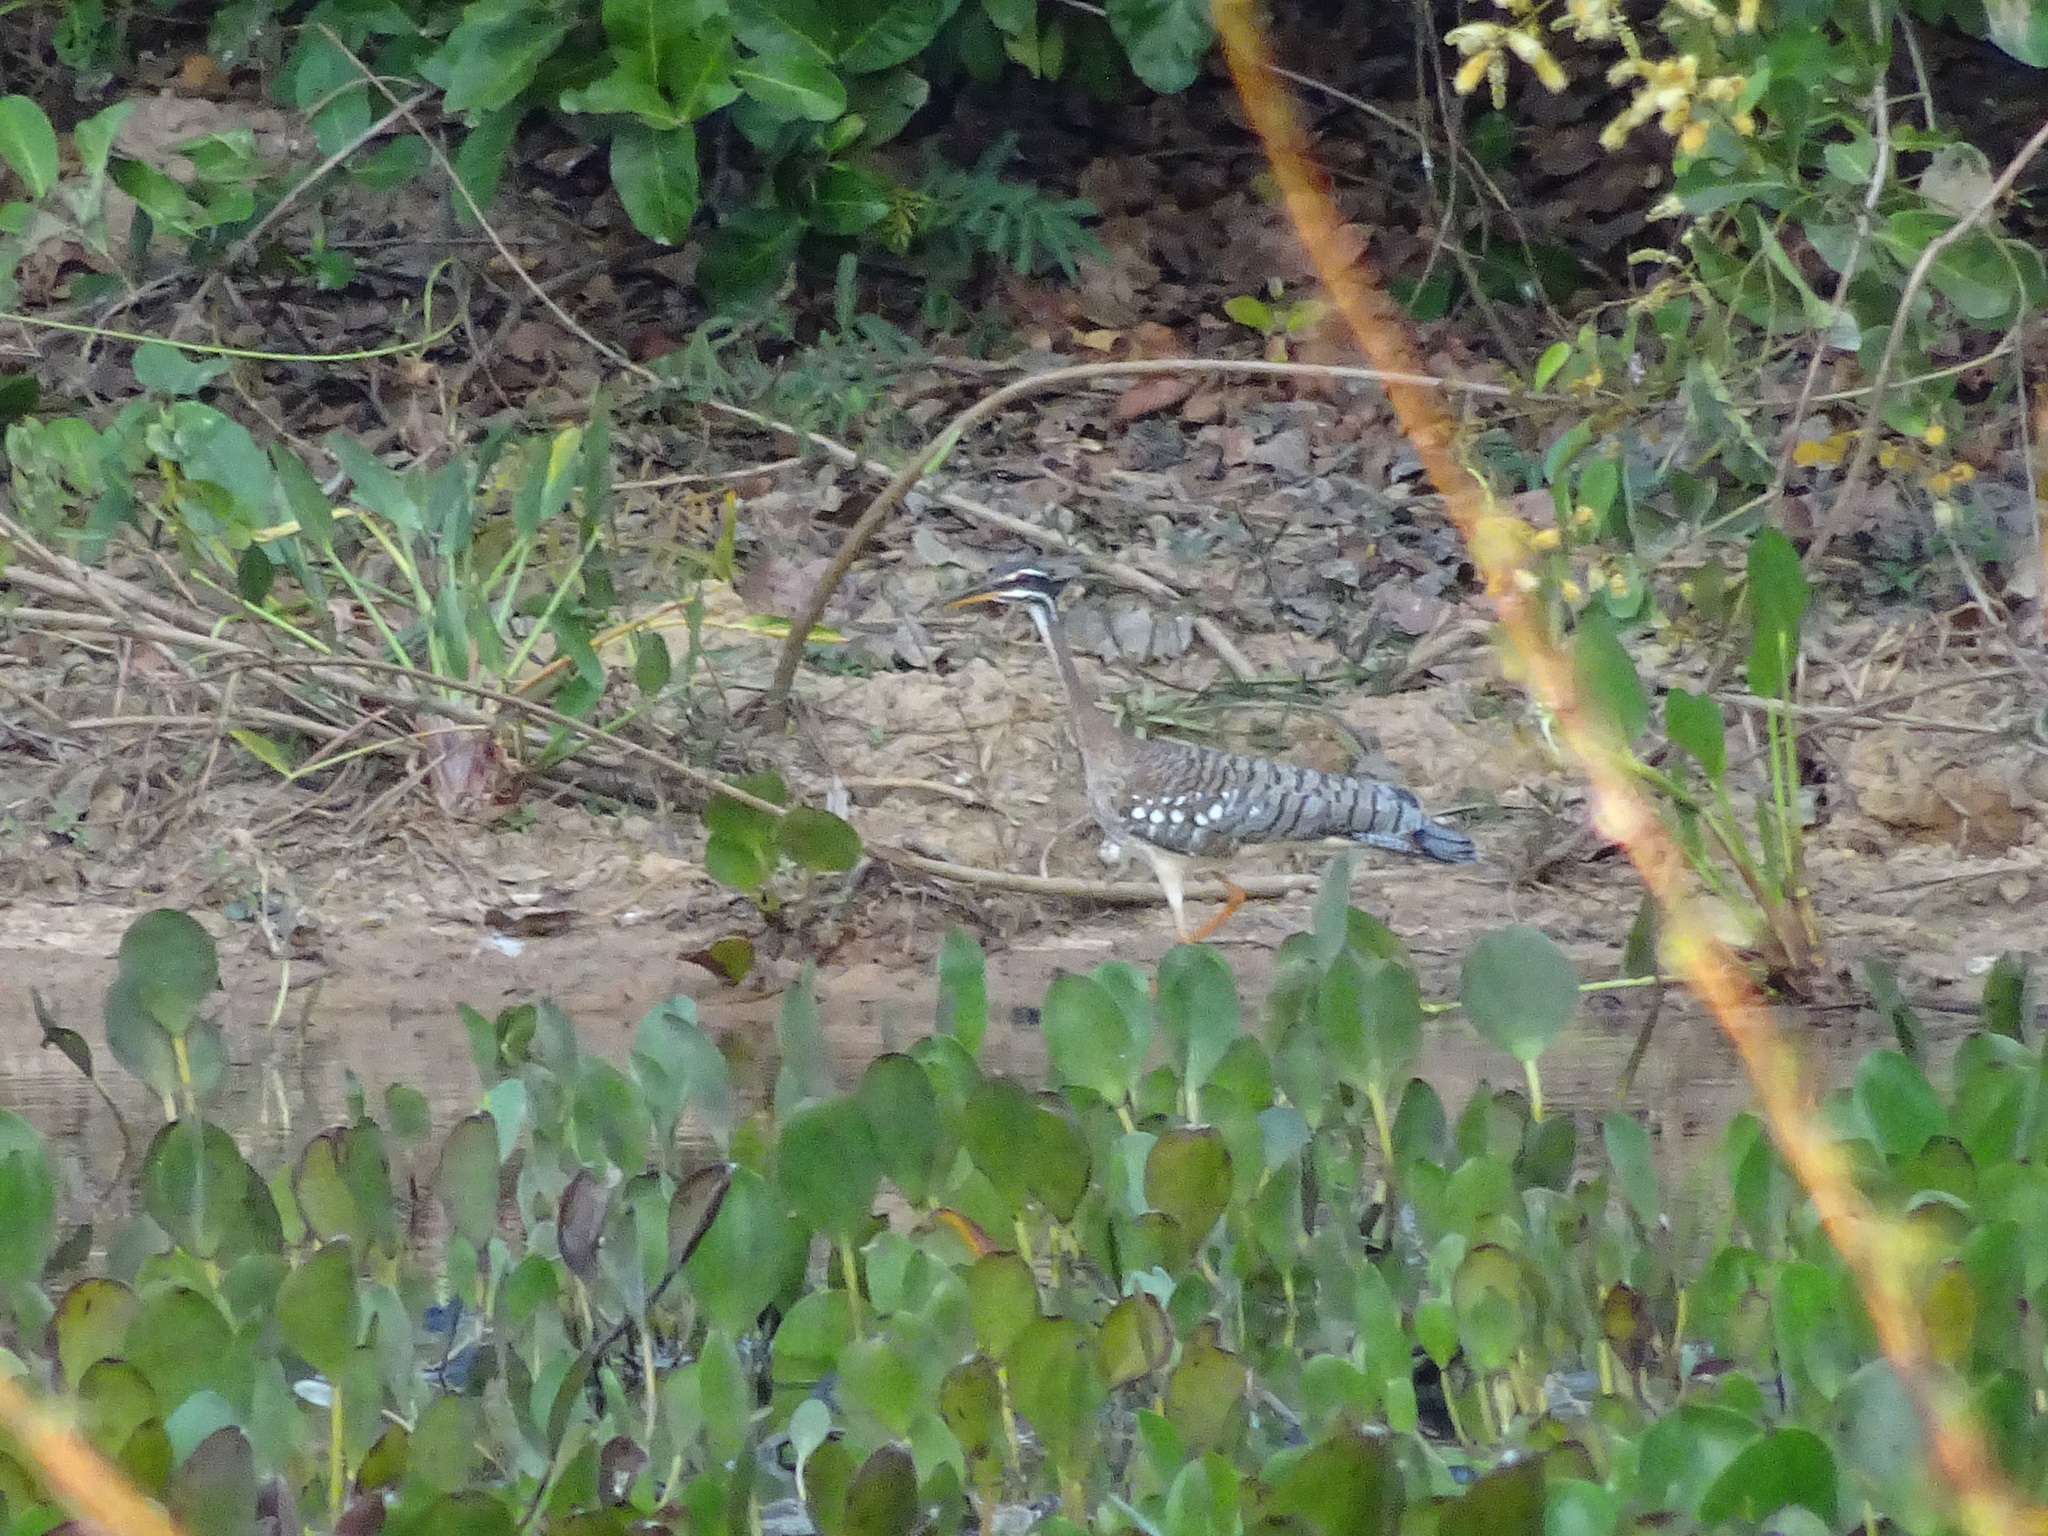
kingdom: Animalia
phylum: Chordata
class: Aves
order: Eurypygiformes
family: Eurypygidae
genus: Eurypyga
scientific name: Eurypyga helias
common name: Sunbittern
